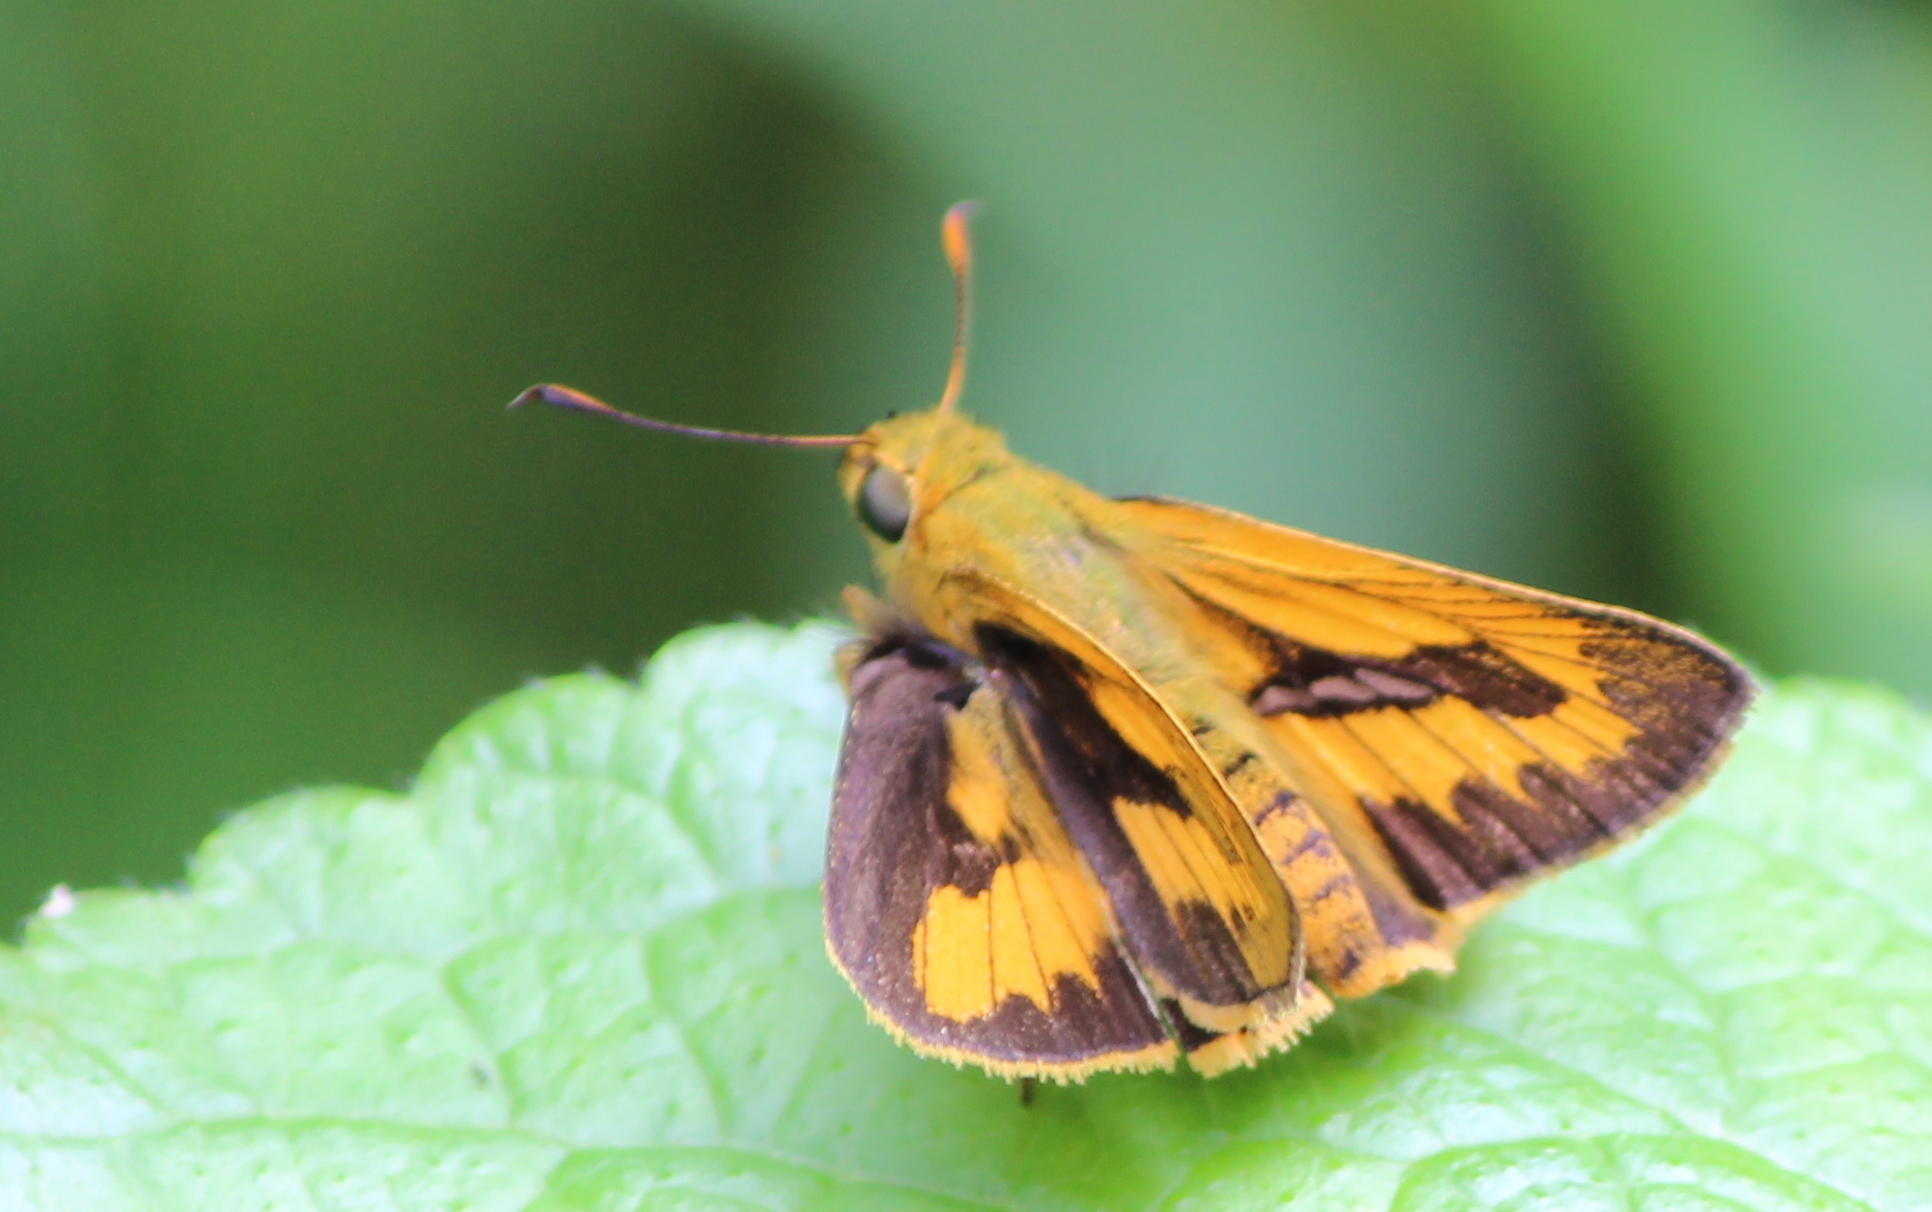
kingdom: Animalia
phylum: Arthropoda
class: Insecta
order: Lepidoptera
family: Hesperiidae
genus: Telicota
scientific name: Telicota bambusae
